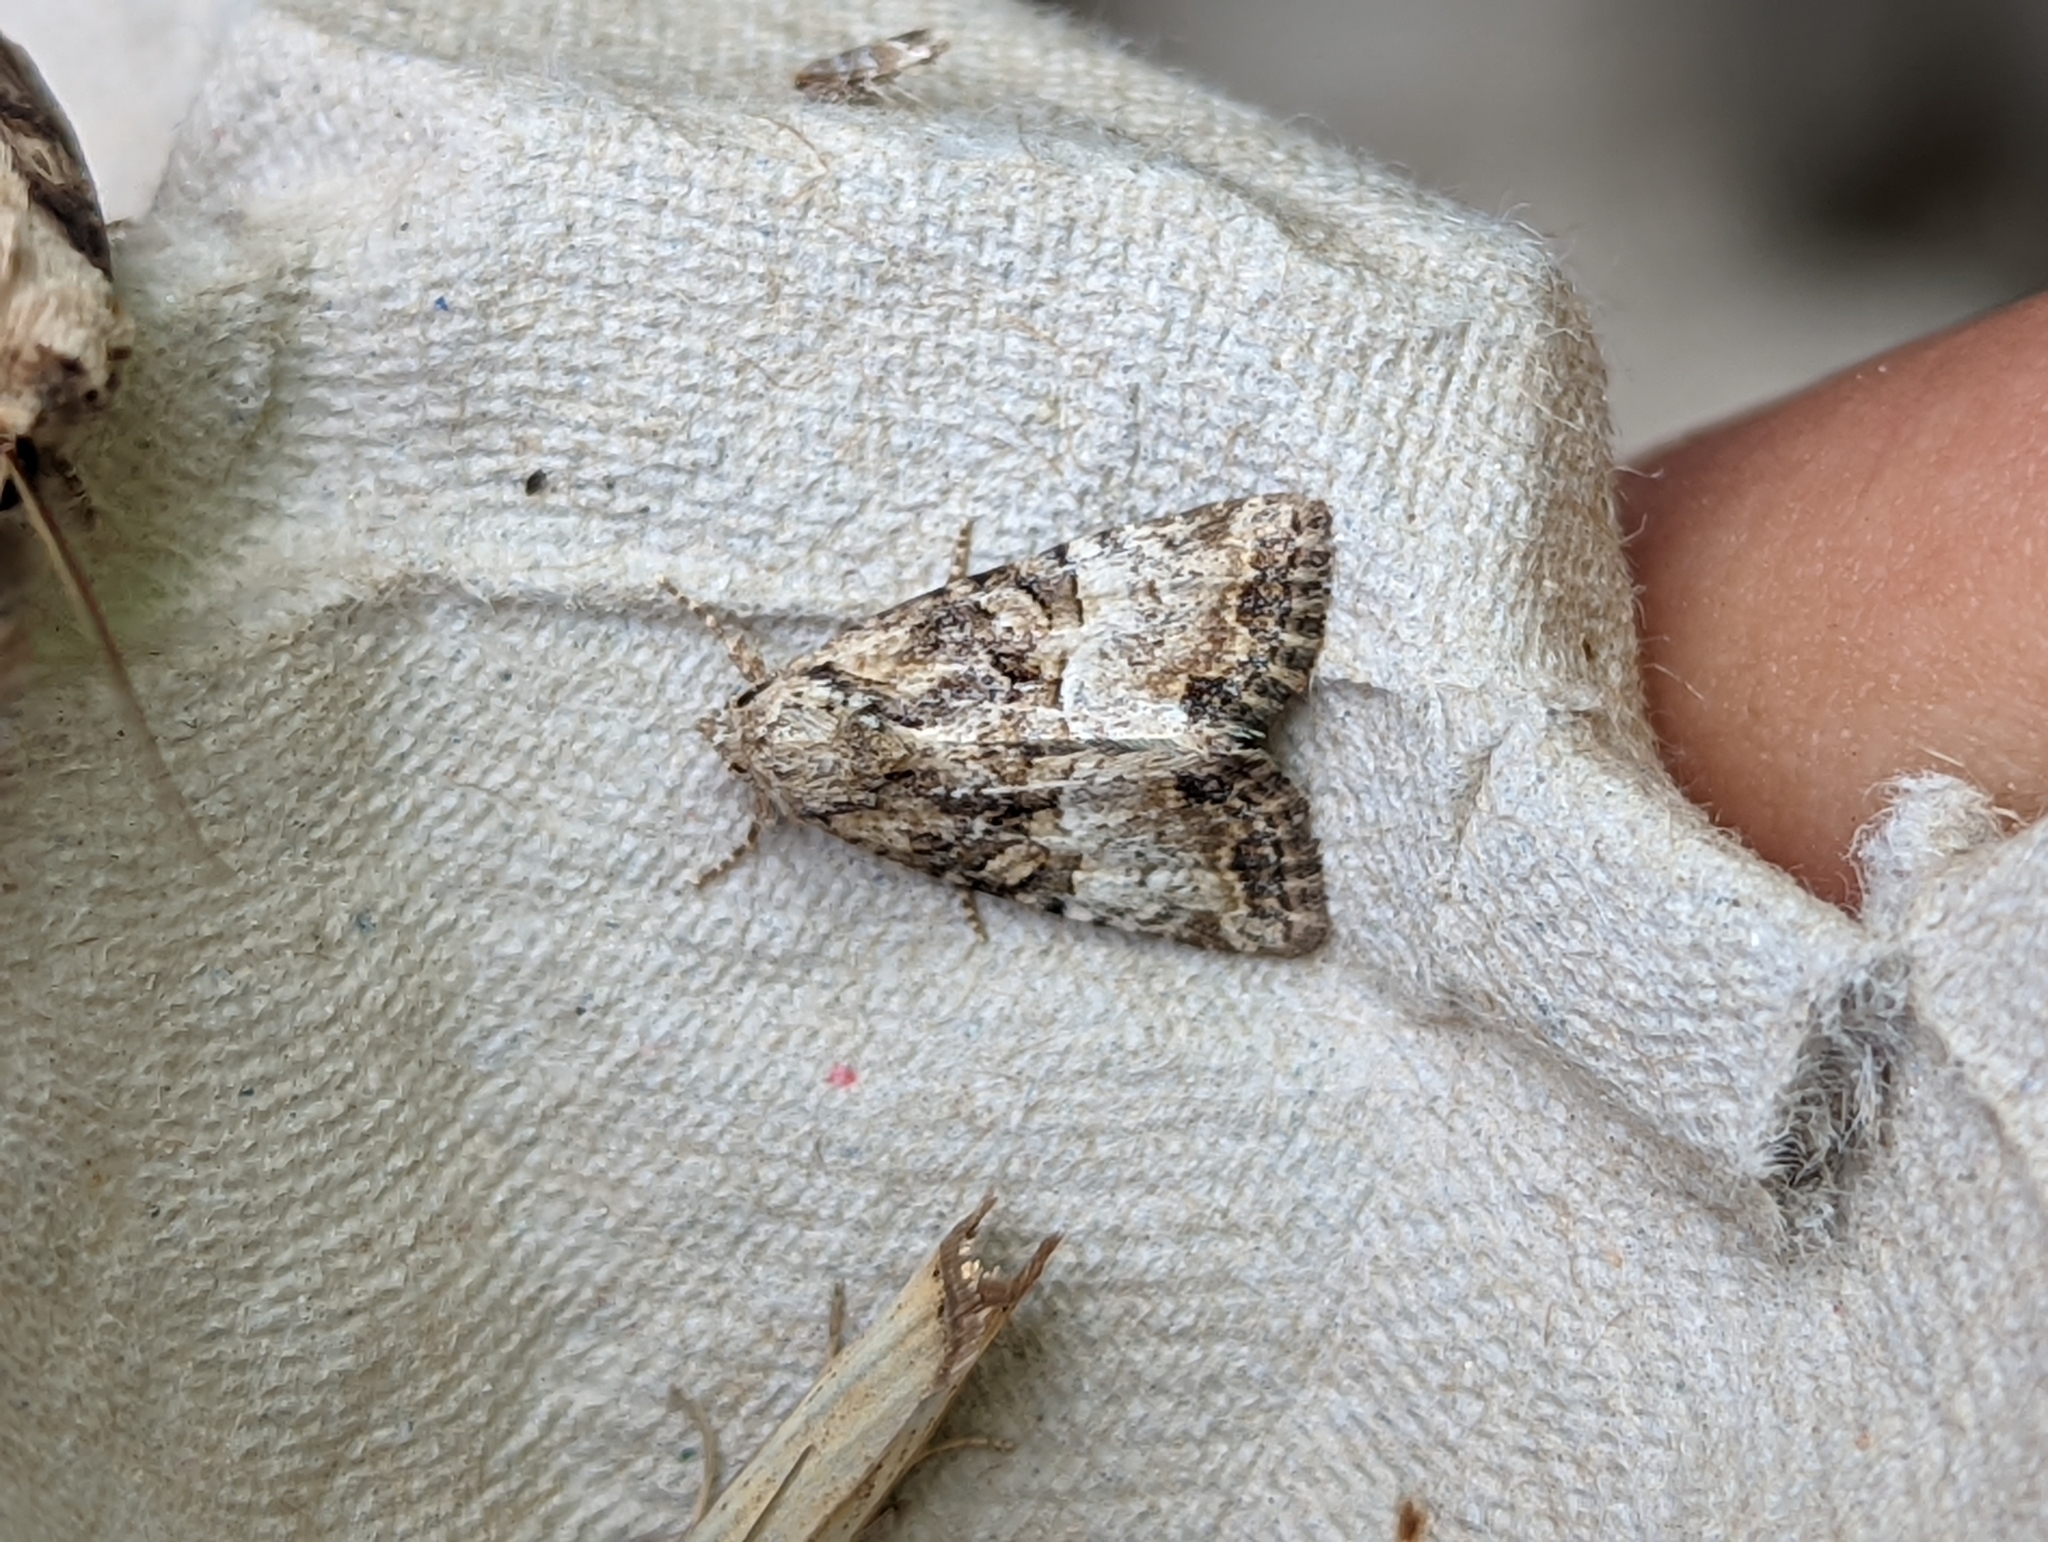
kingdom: Animalia
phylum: Arthropoda
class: Insecta
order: Lepidoptera
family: Noctuidae
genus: Mesoligia
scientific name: Mesoligia furuncula
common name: Cloaked minor
